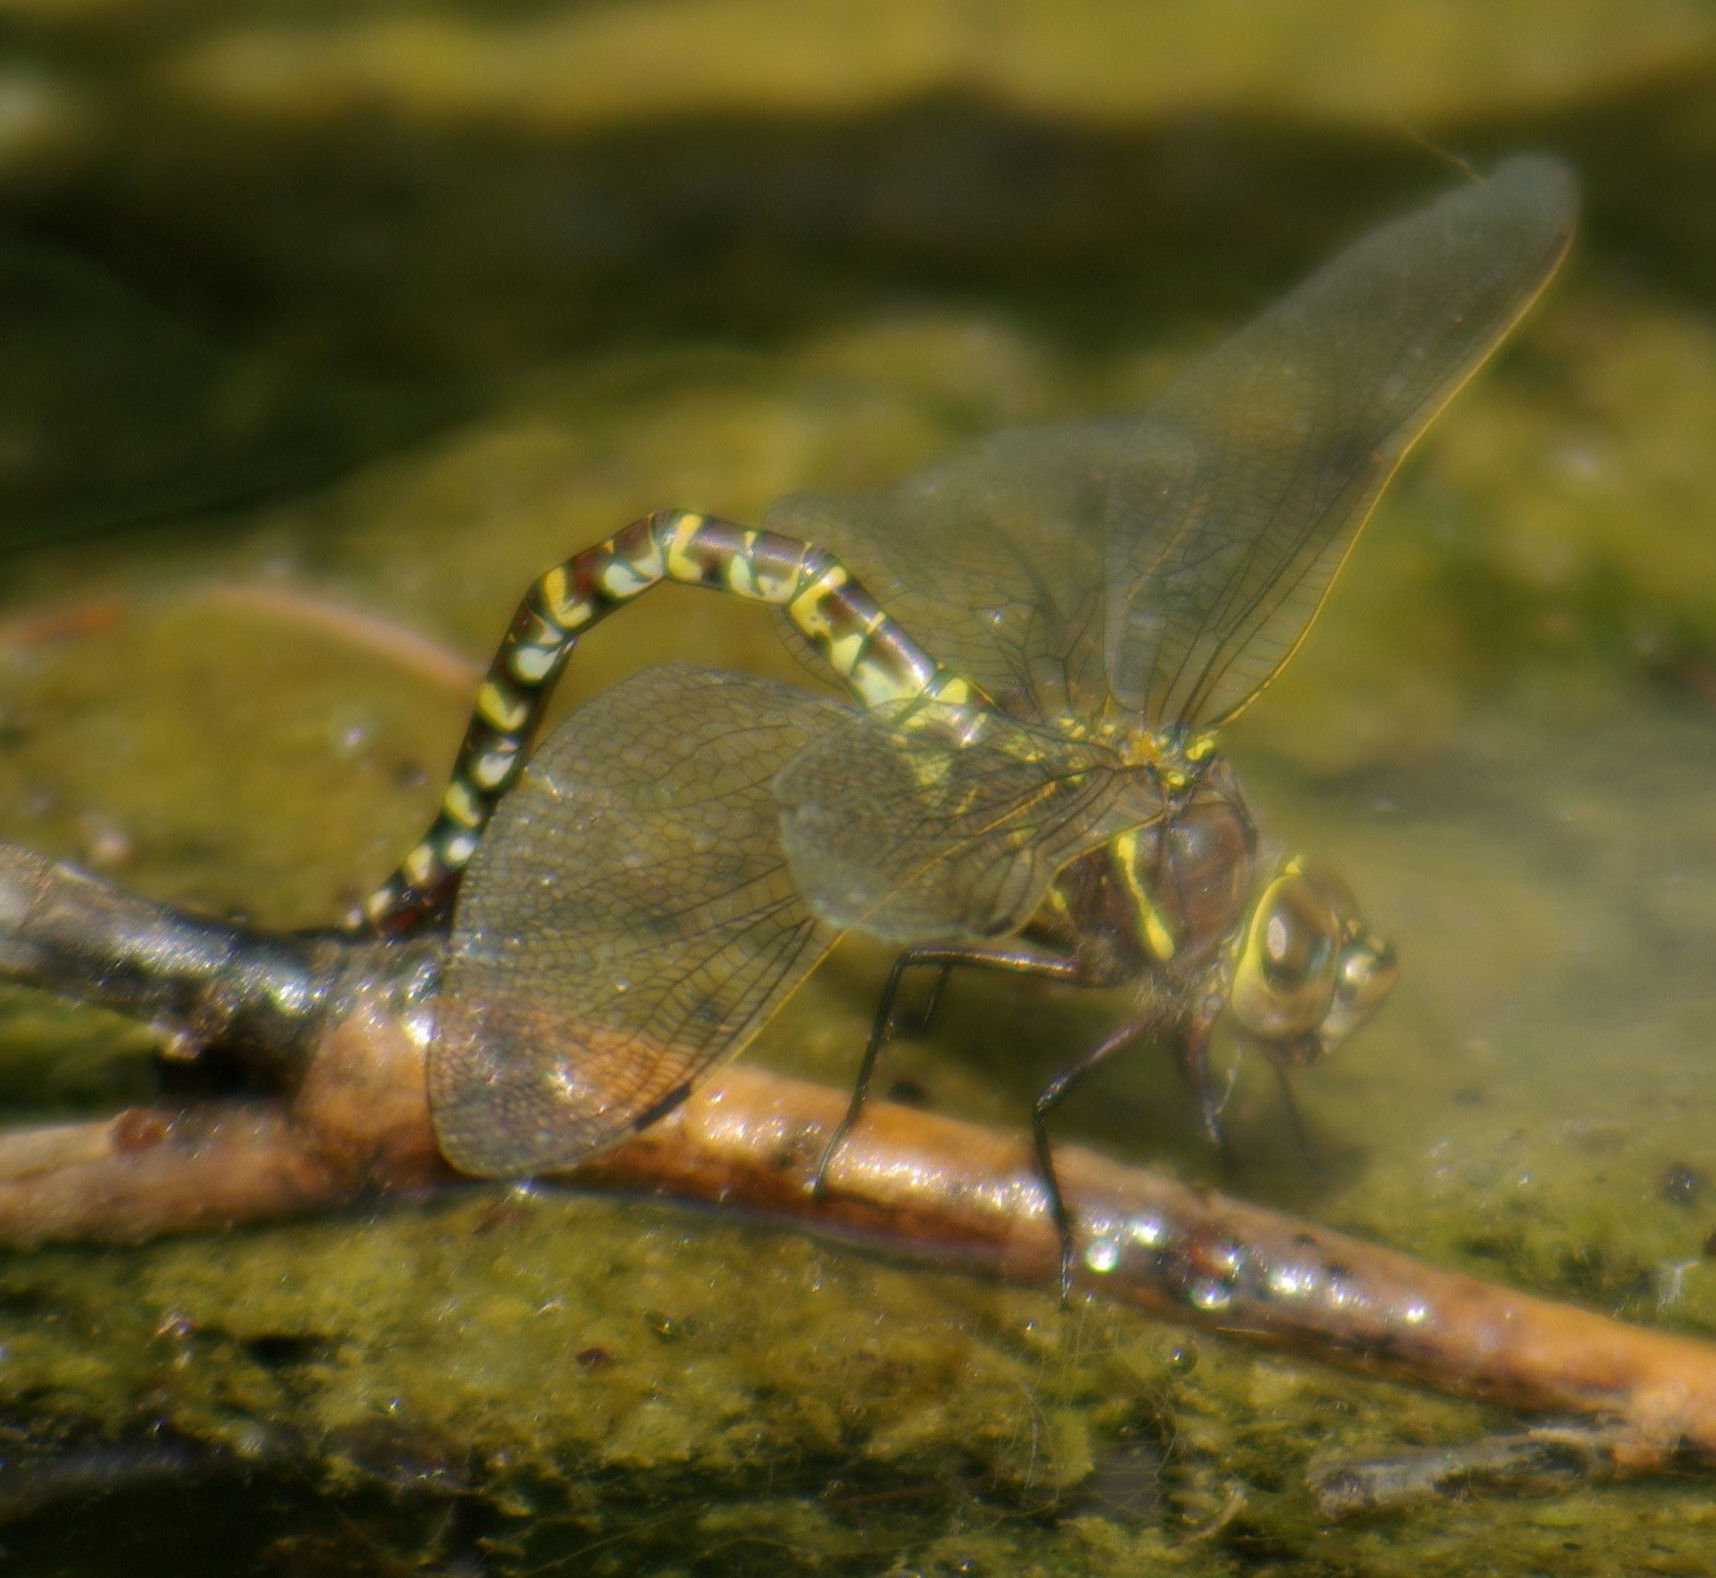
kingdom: Animalia
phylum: Arthropoda
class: Insecta
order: Odonata
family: Aeshnidae
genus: Aeshna
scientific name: Aeshna interrupta
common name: Variable darner
